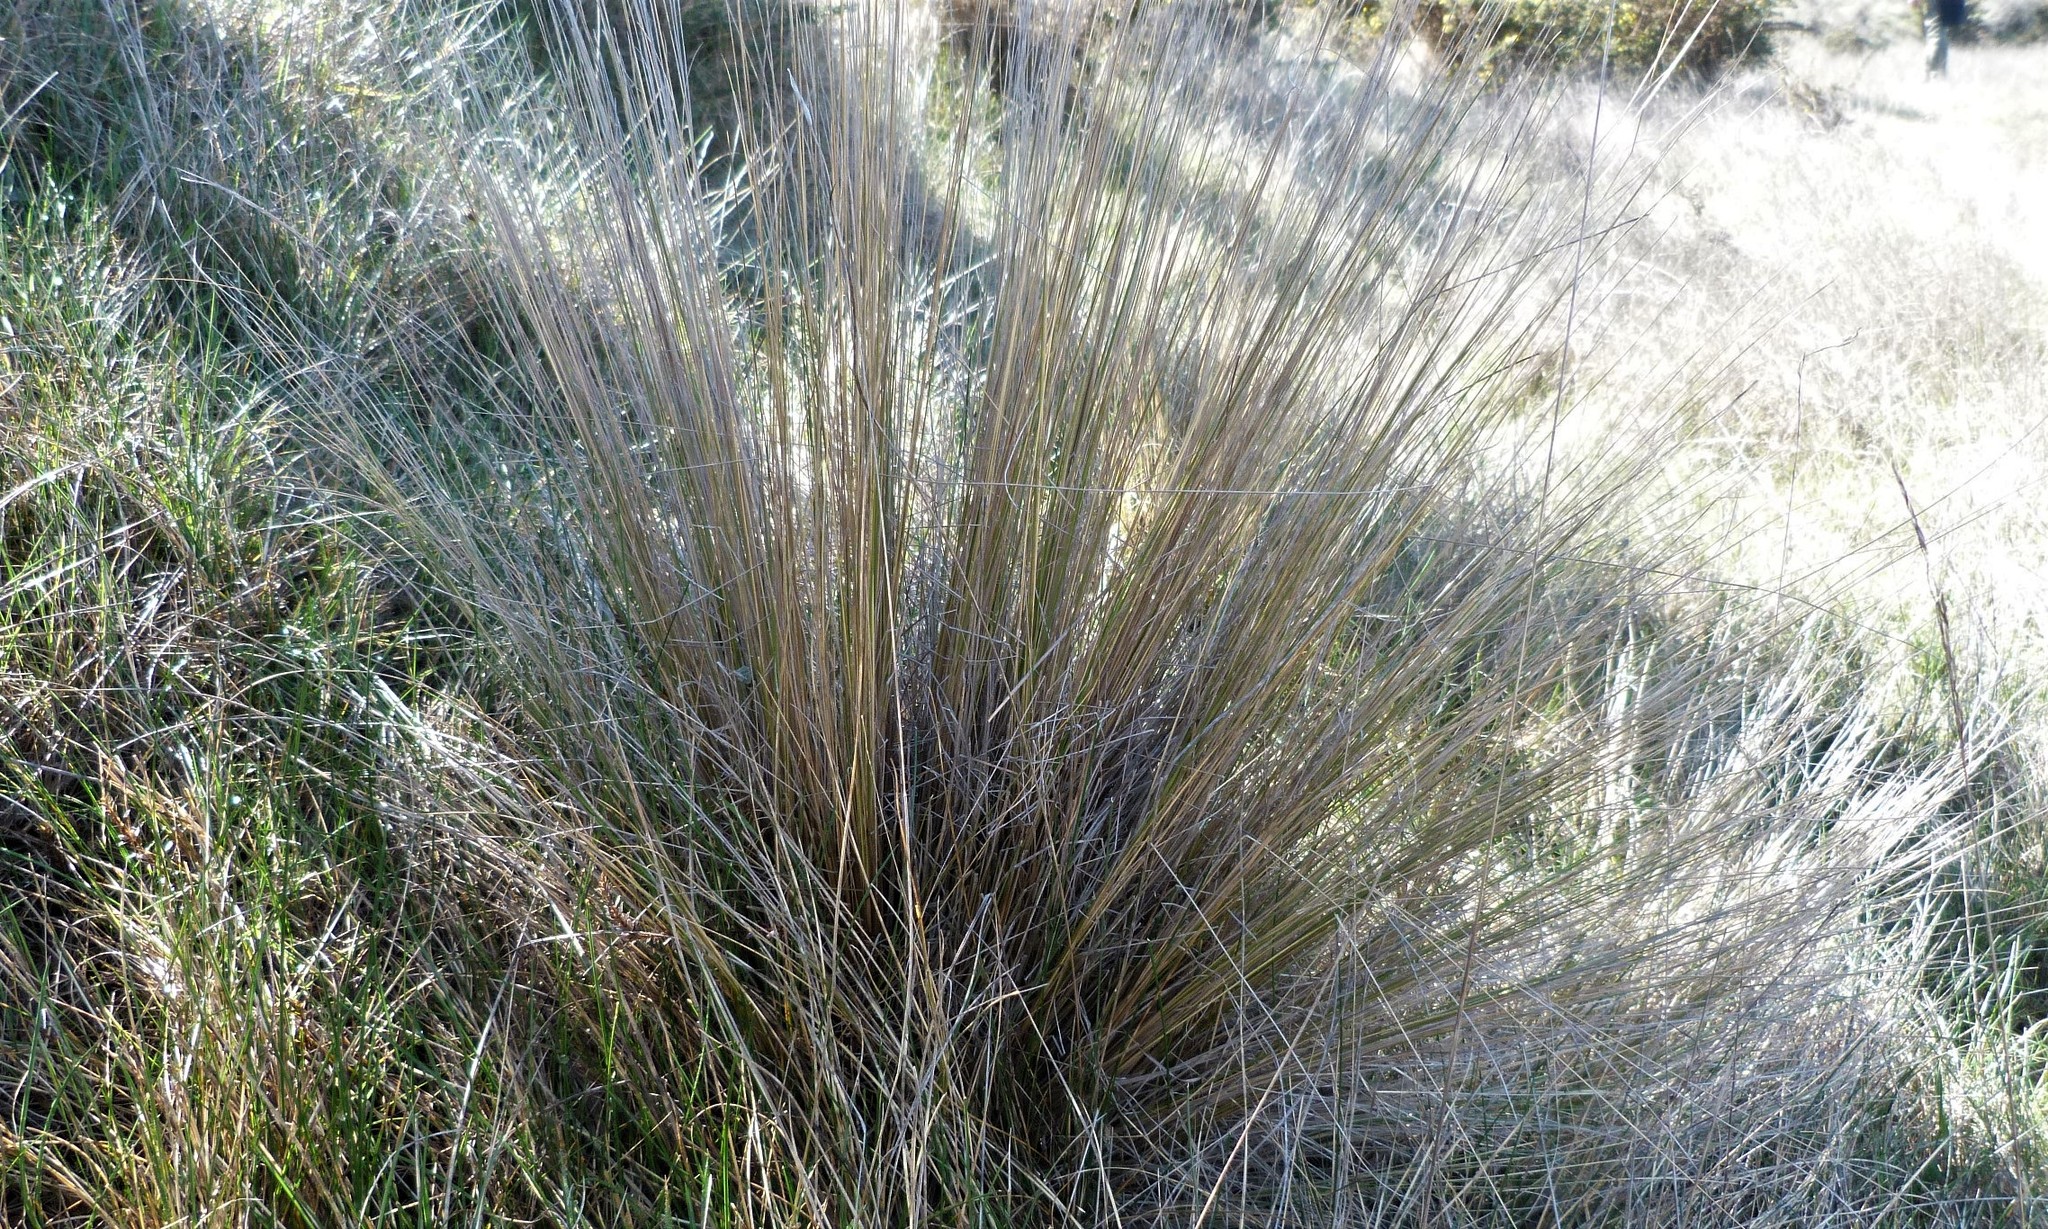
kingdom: Plantae
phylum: Tracheophyta
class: Liliopsida
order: Poales
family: Poaceae
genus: Festuca
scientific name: Festuca novae-zelandiae
